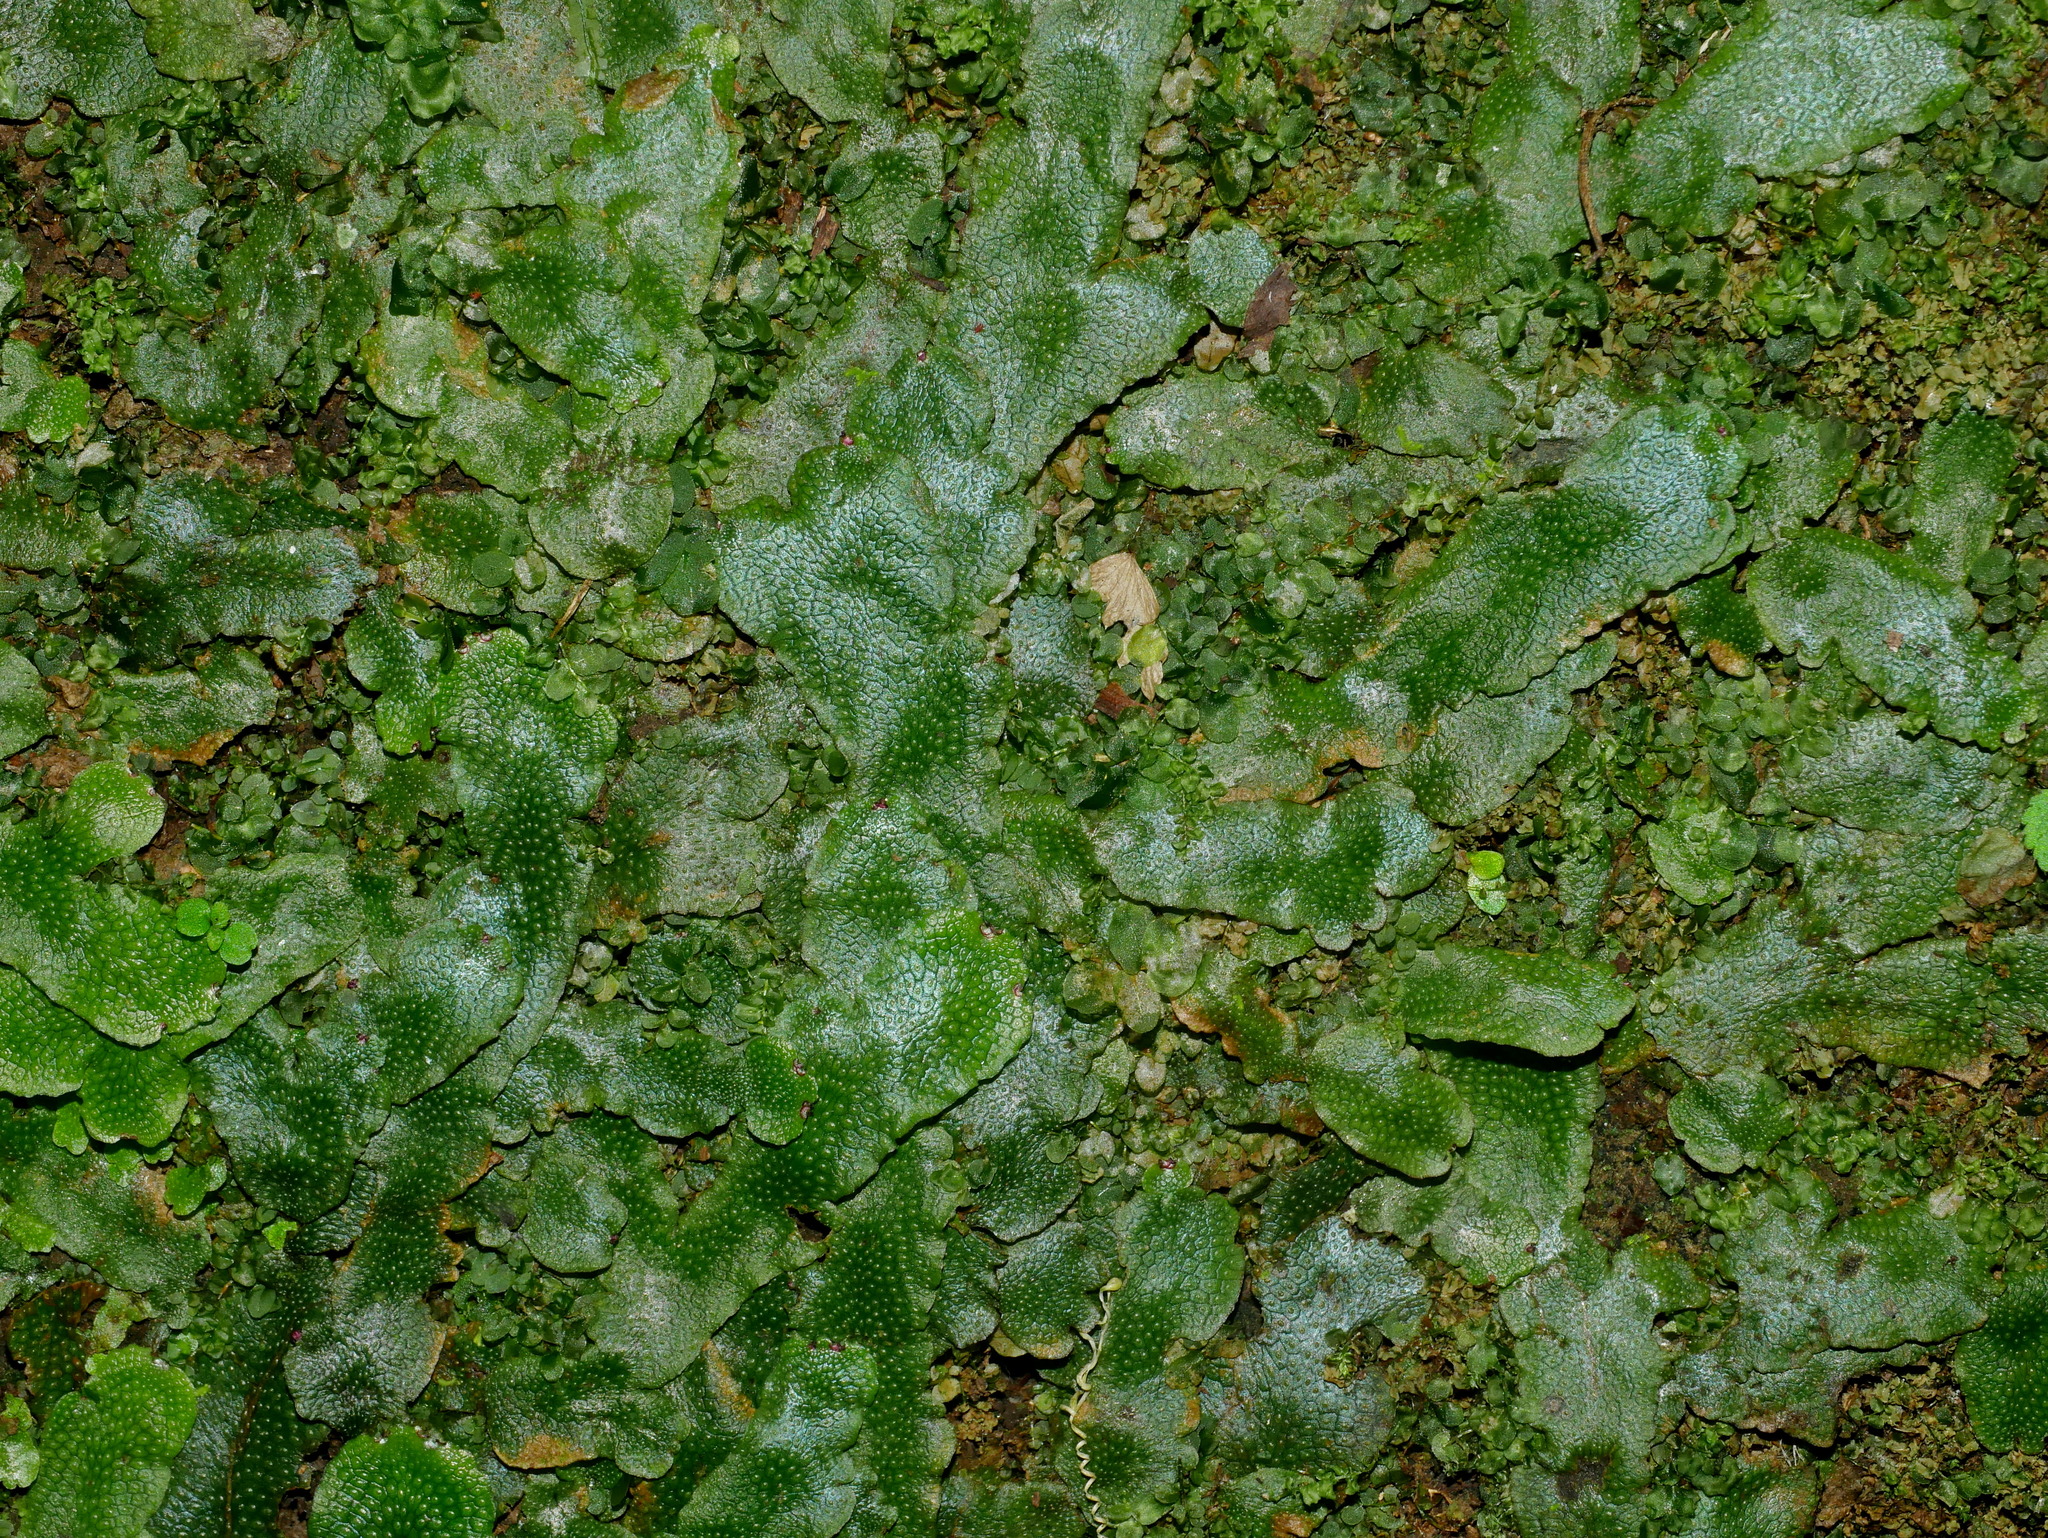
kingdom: Plantae
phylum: Marchantiophyta
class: Marchantiopsida
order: Marchantiales
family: Conocephalaceae
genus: Conocephalum
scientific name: Conocephalum conicum
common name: Great scented liverwort
